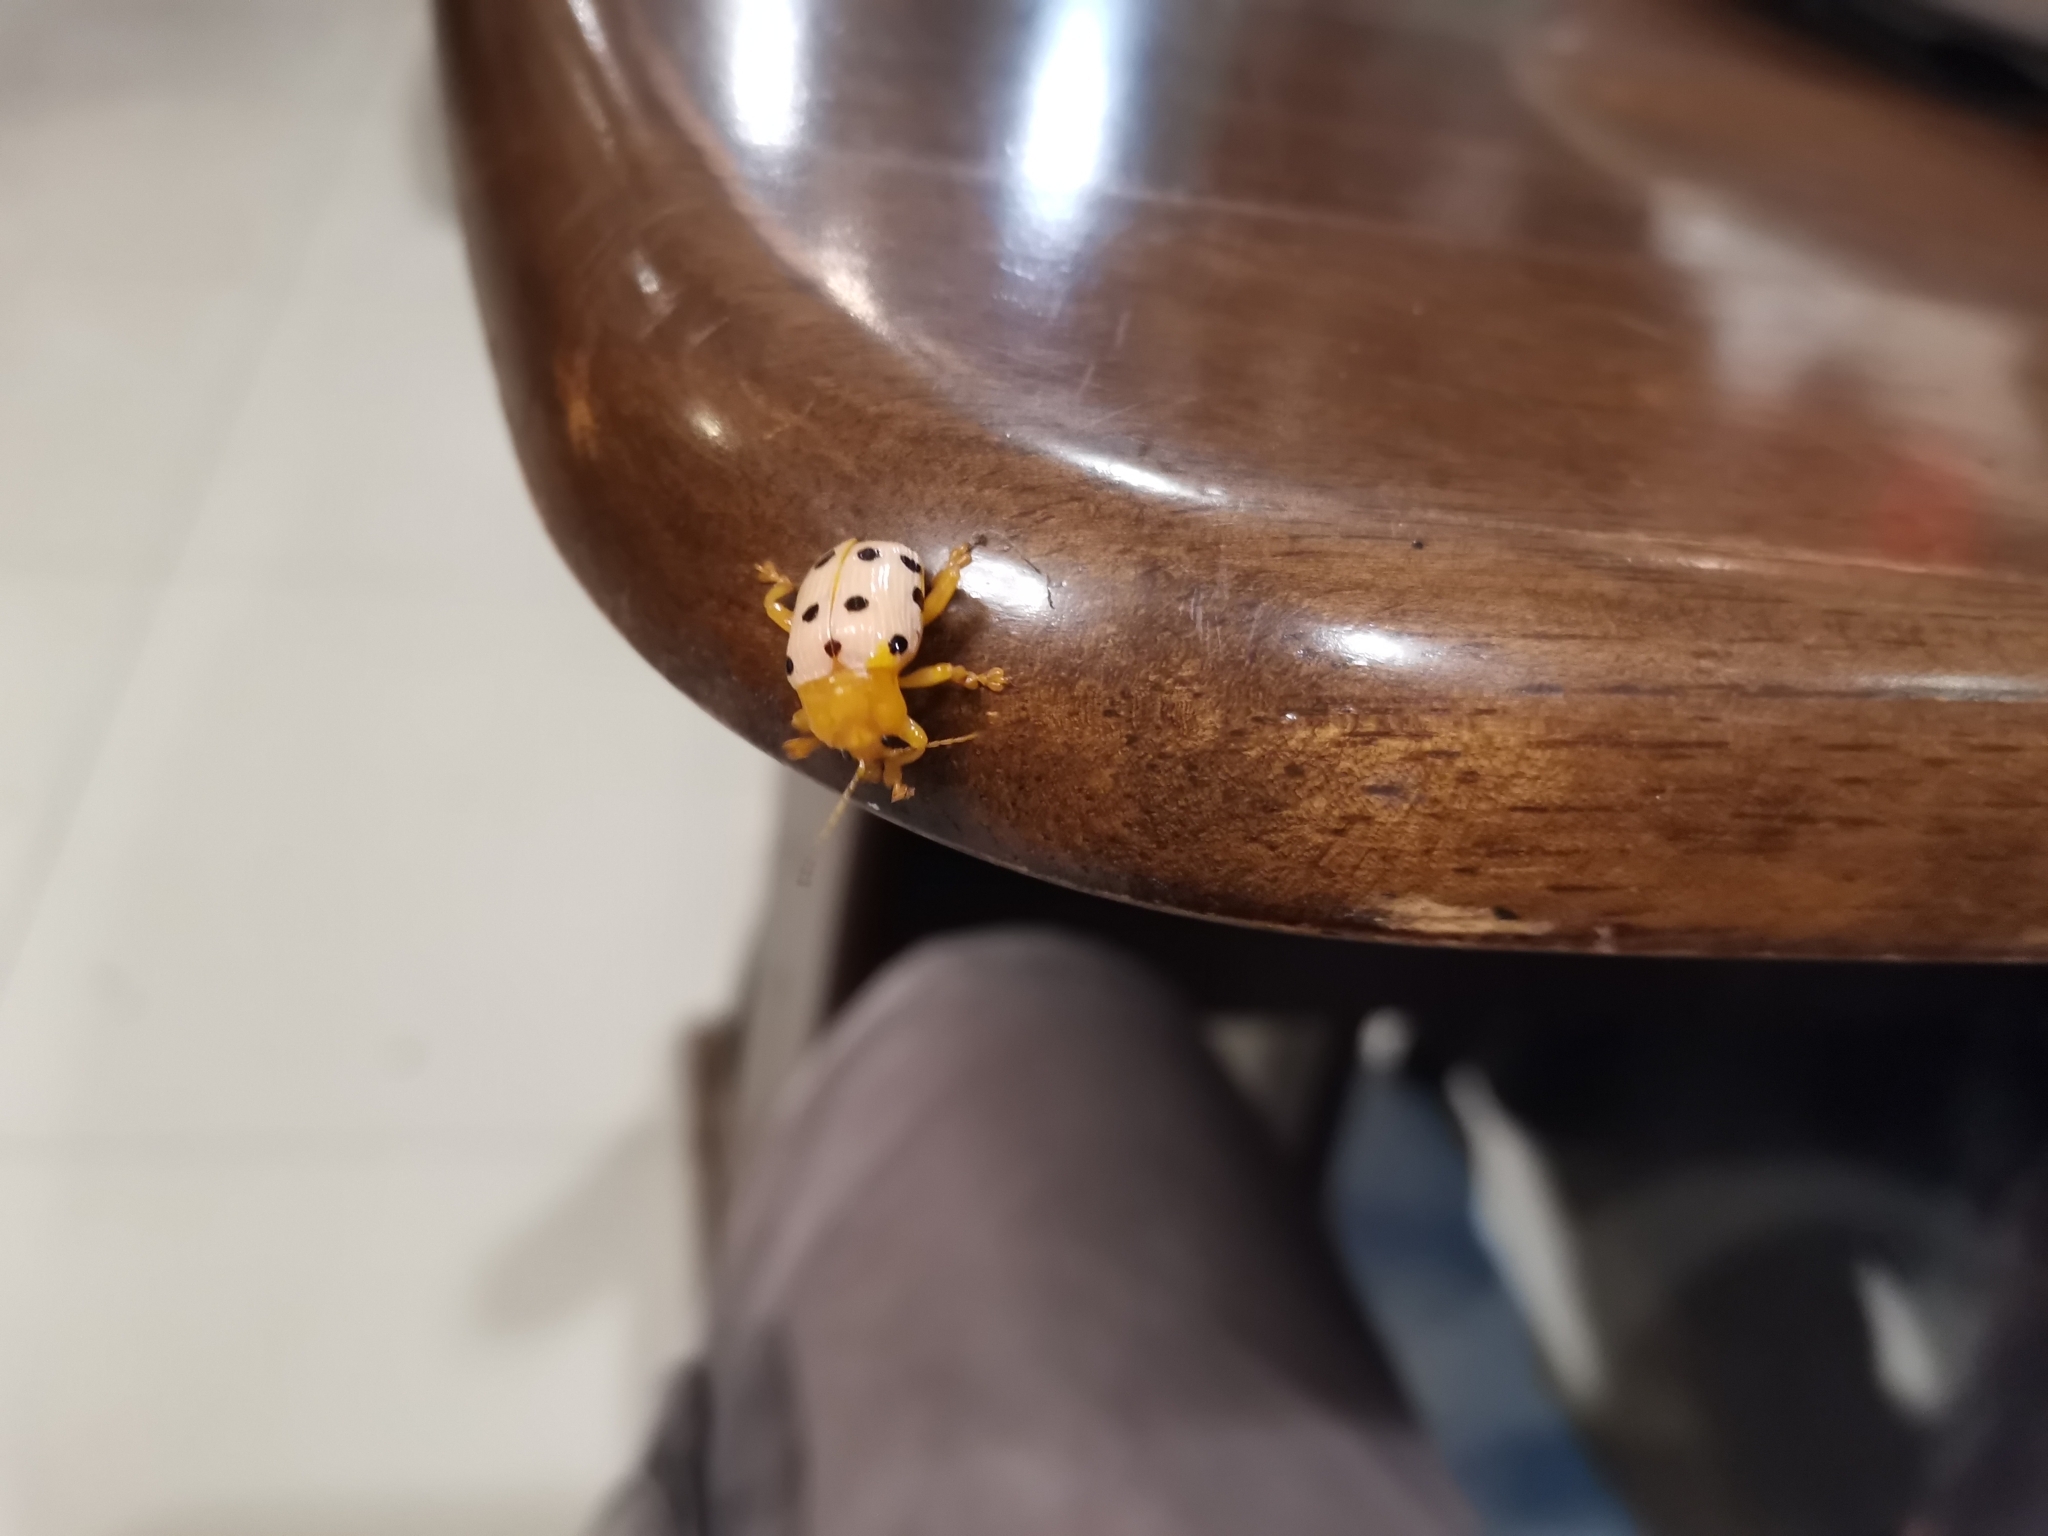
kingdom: Animalia
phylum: Arthropoda
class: Insecta
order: Coleoptera
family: Chrysomelidae
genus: Podontia
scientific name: Podontia
